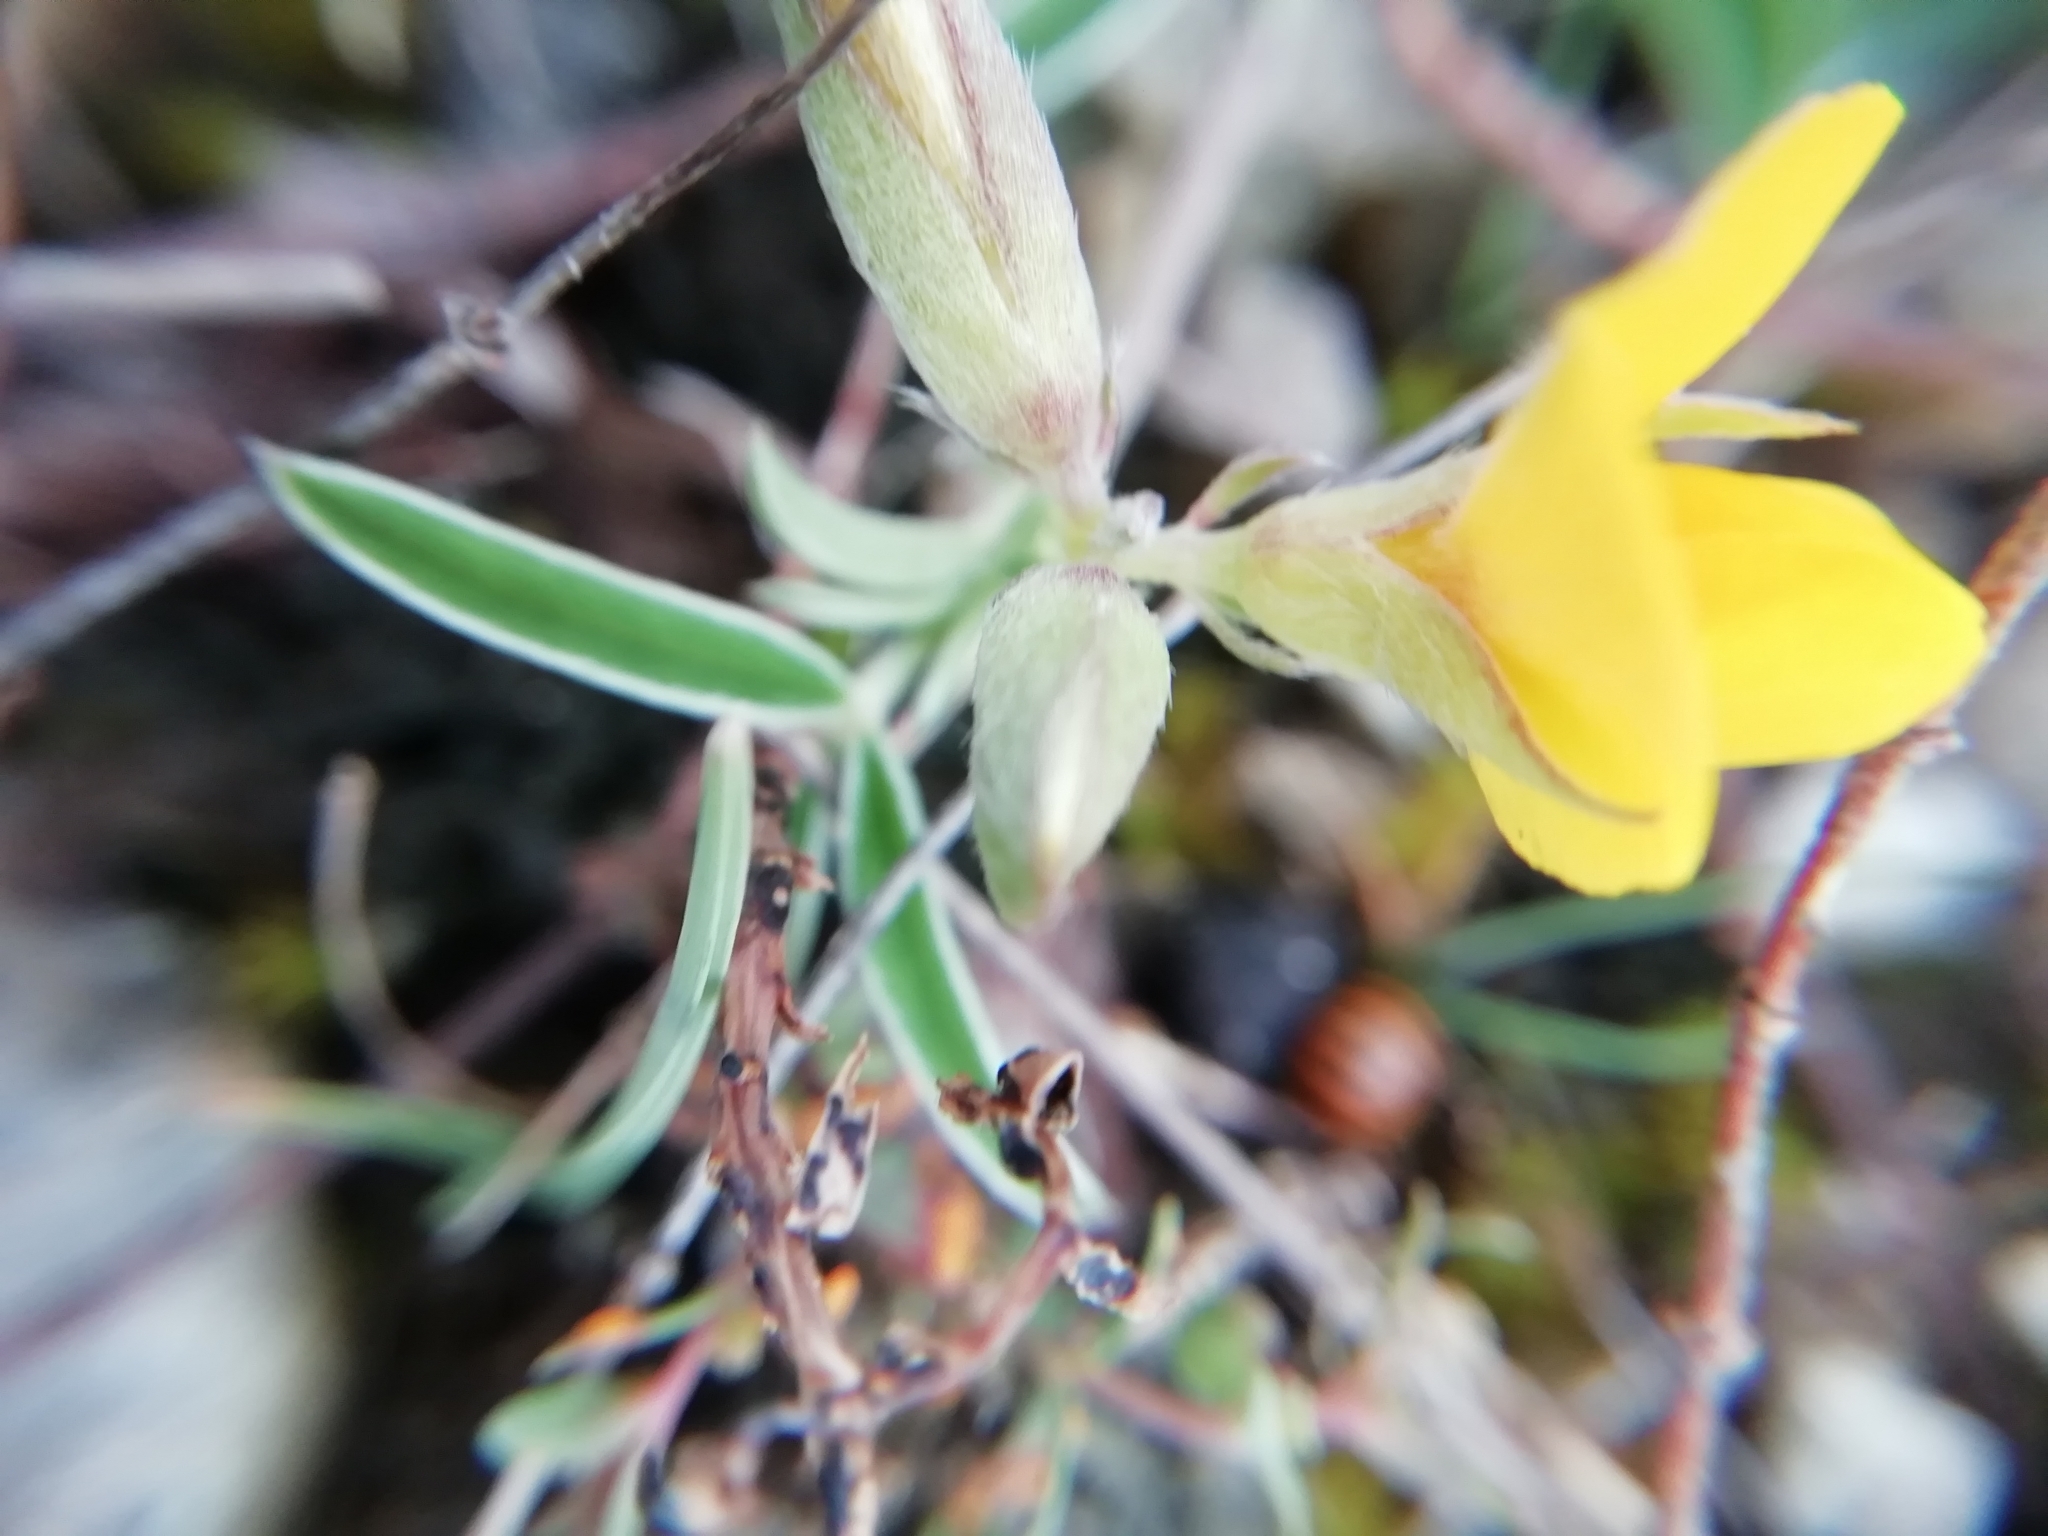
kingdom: Plantae
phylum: Tracheophyta
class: Magnoliopsida
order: Fabales
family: Fabaceae
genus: Argyrolobium
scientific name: Argyrolobium zanonii
